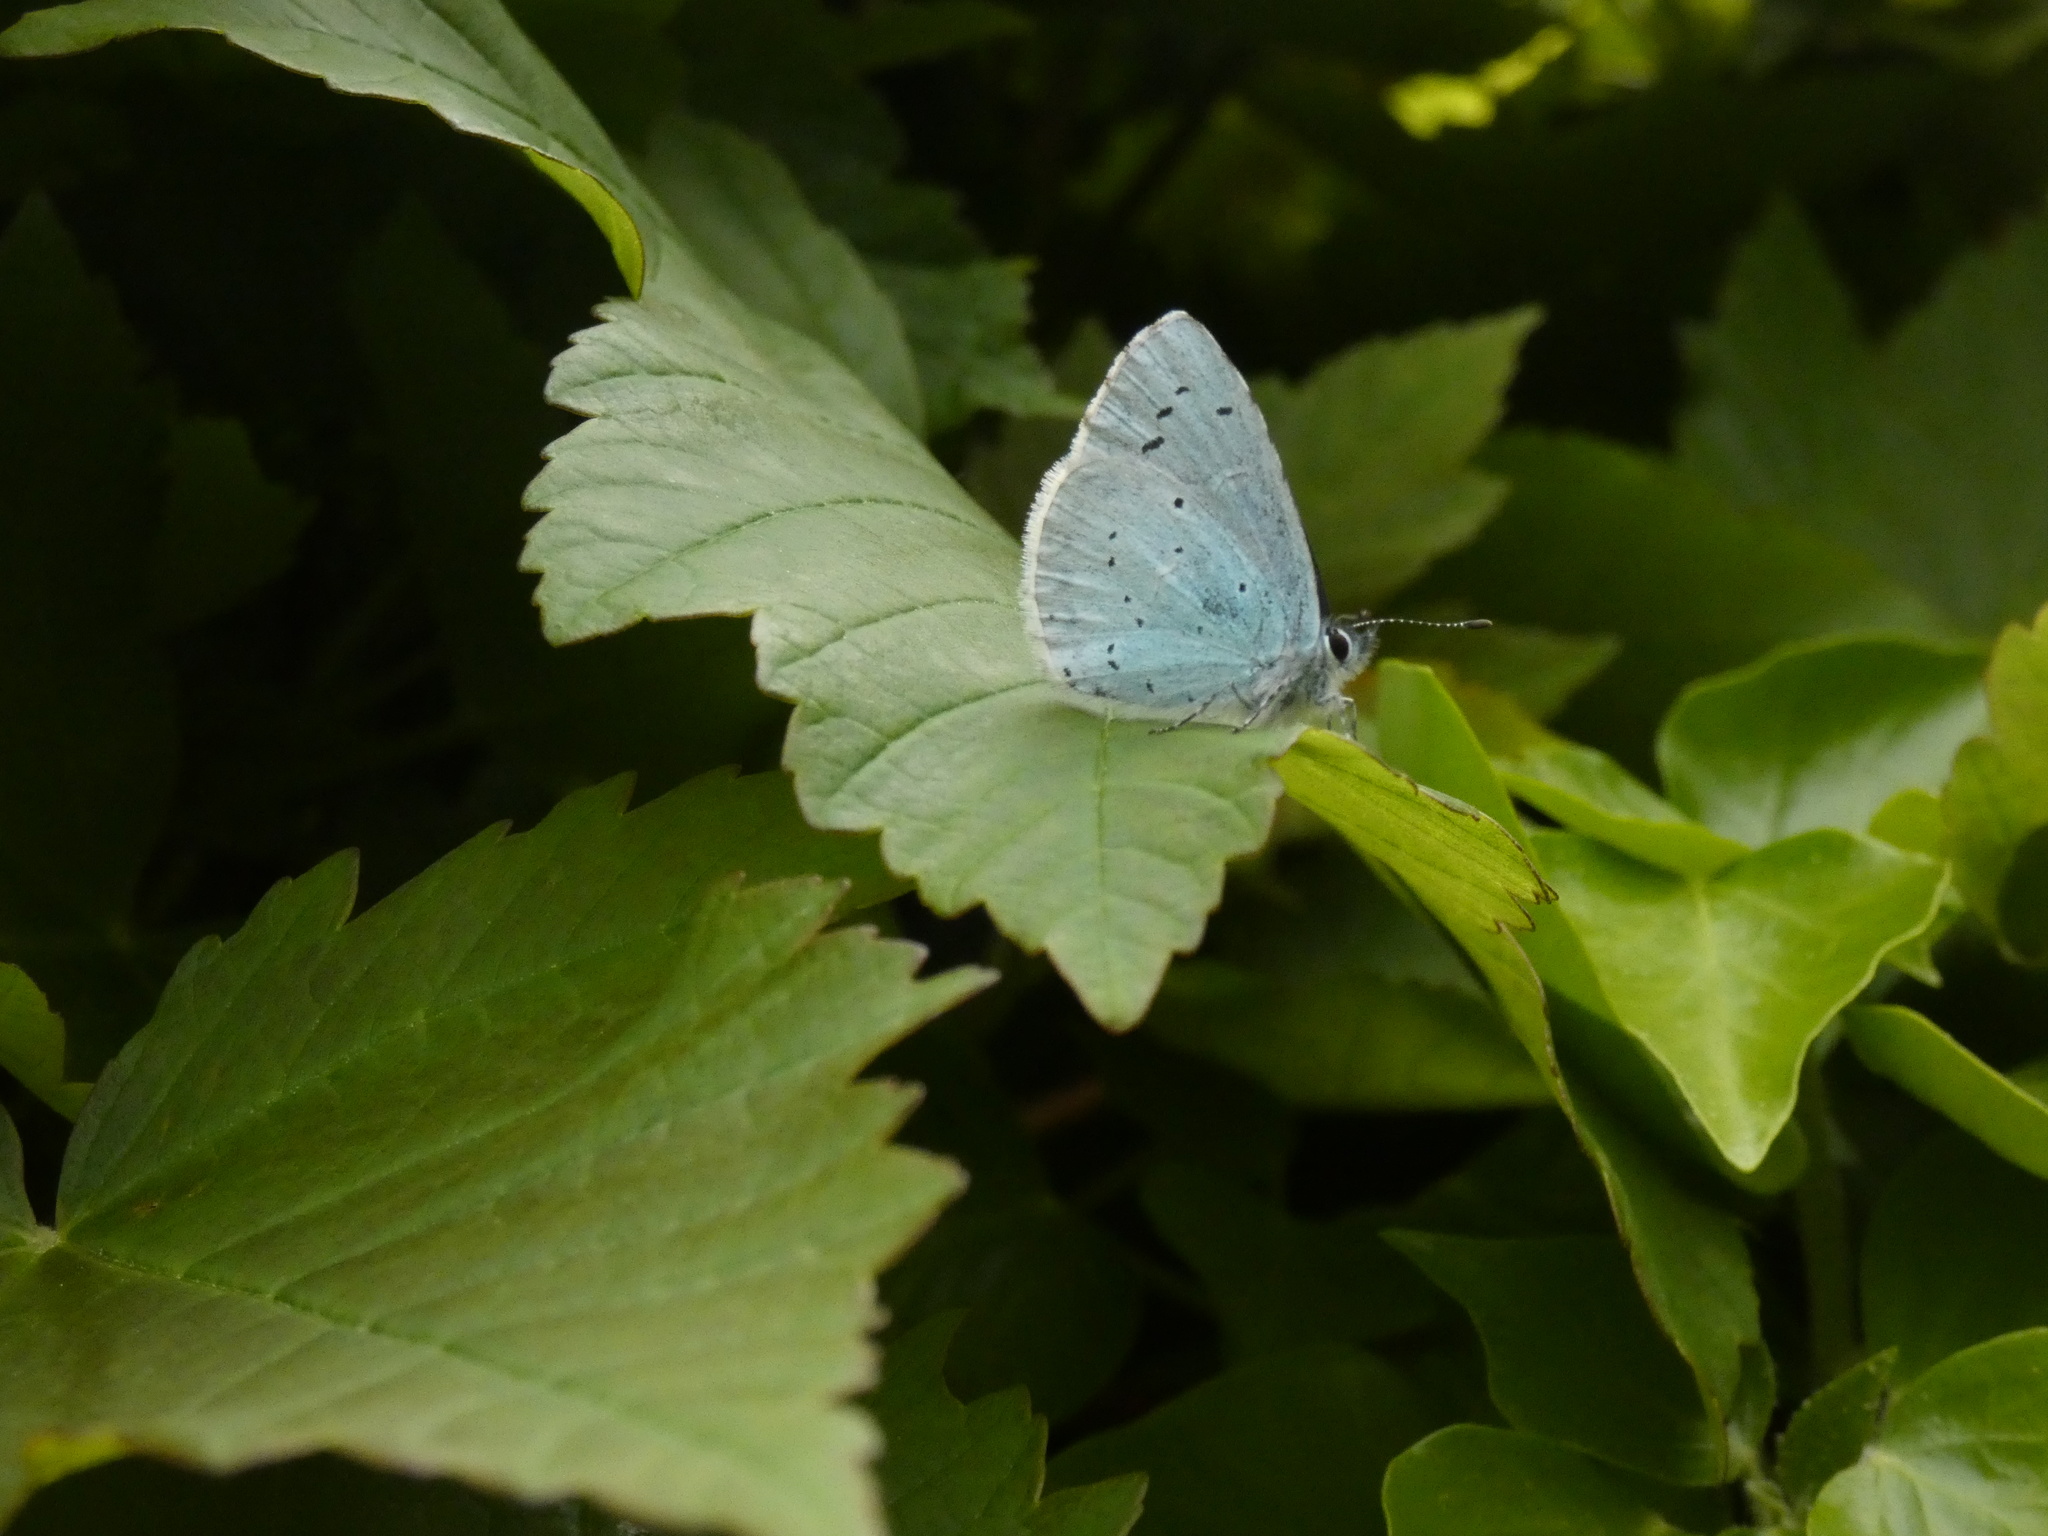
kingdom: Animalia
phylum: Arthropoda
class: Insecta
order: Lepidoptera
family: Lycaenidae
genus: Celastrina
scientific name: Celastrina argiolus
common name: Holly blue
